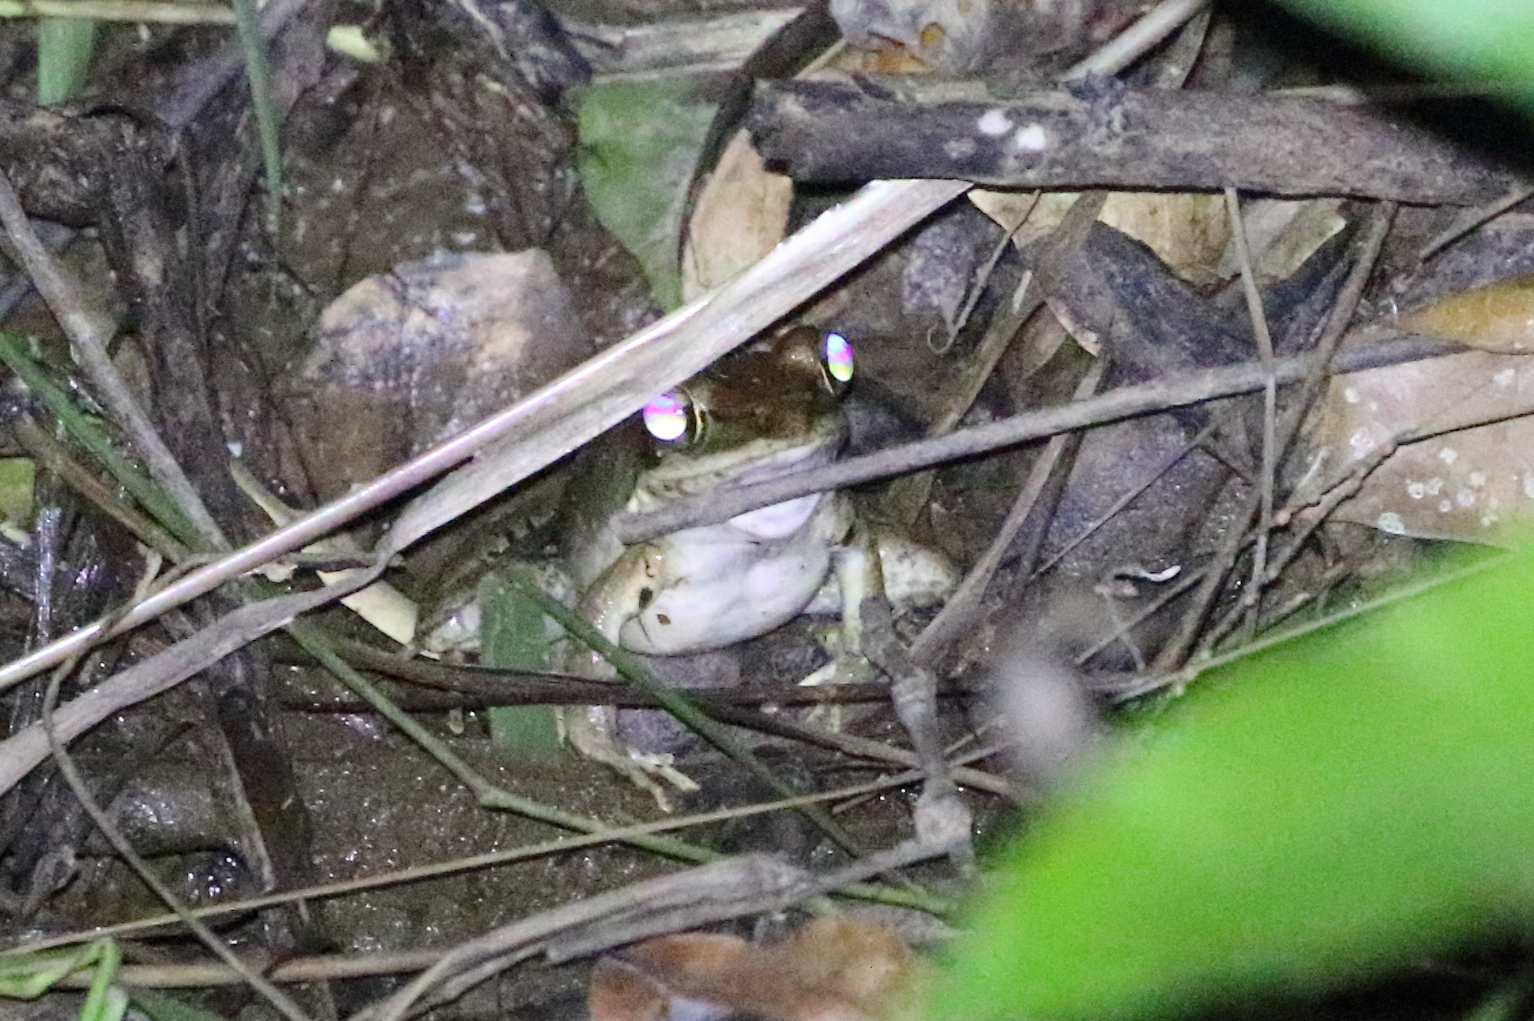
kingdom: Animalia
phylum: Chordata
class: Amphibia
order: Anura
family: Ranidae
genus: Papurana
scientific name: Papurana daemeli
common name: Arhem rana
